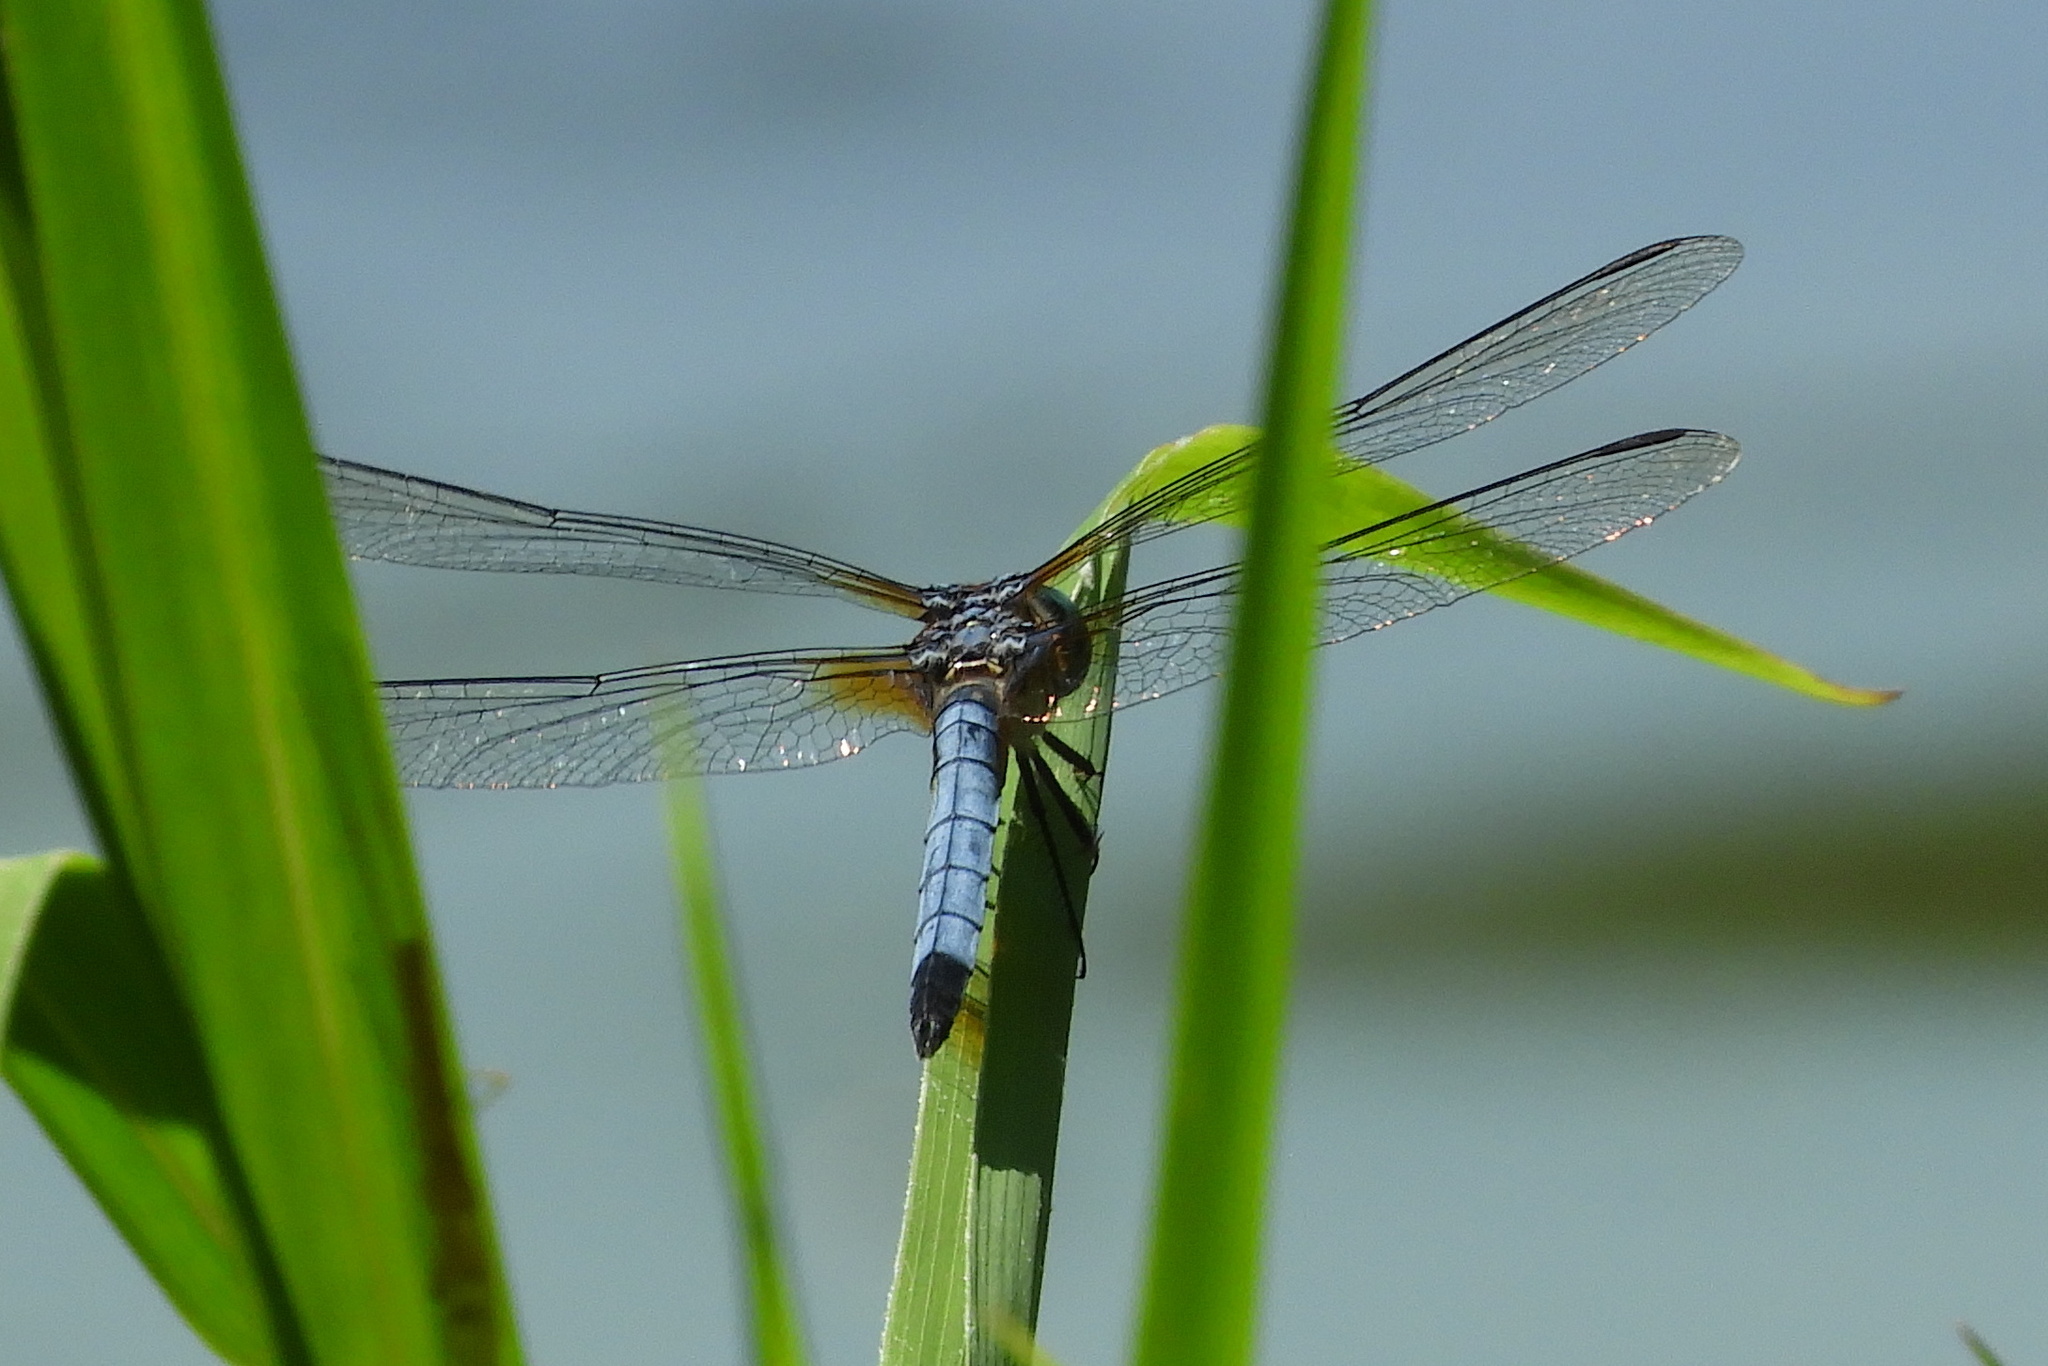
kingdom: Animalia
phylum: Arthropoda
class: Insecta
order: Odonata
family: Libellulidae
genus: Pachydiplax
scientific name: Pachydiplax longipennis
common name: Blue dasher
